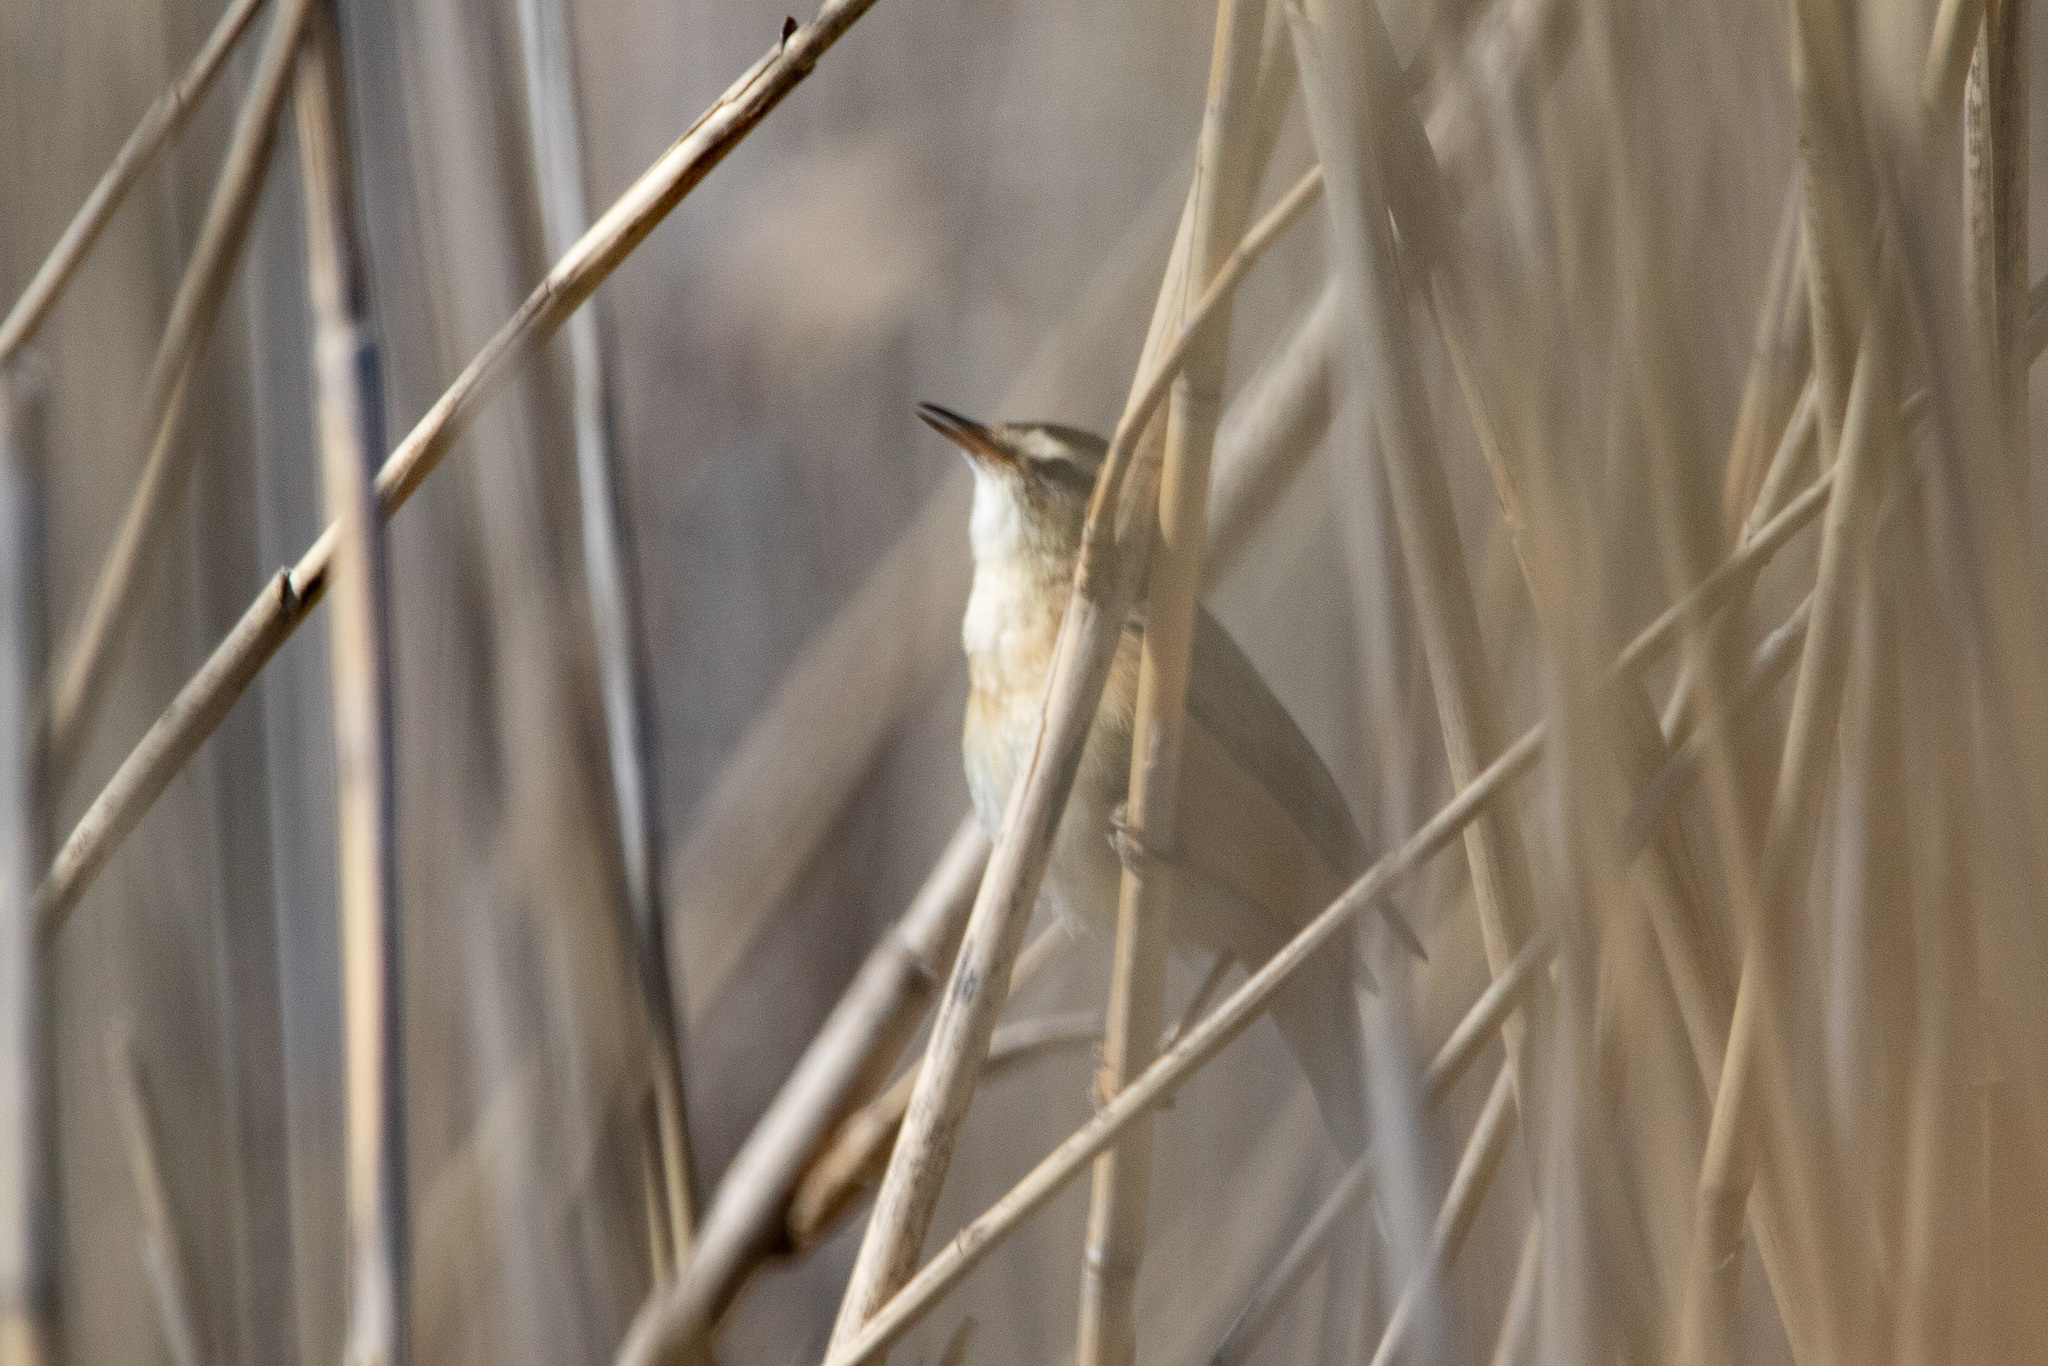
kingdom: Animalia
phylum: Chordata
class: Aves
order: Passeriformes
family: Acrocephalidae
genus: Acrocephalus
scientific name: Acrocephalus schoenobaenus
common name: Sedge warbler
